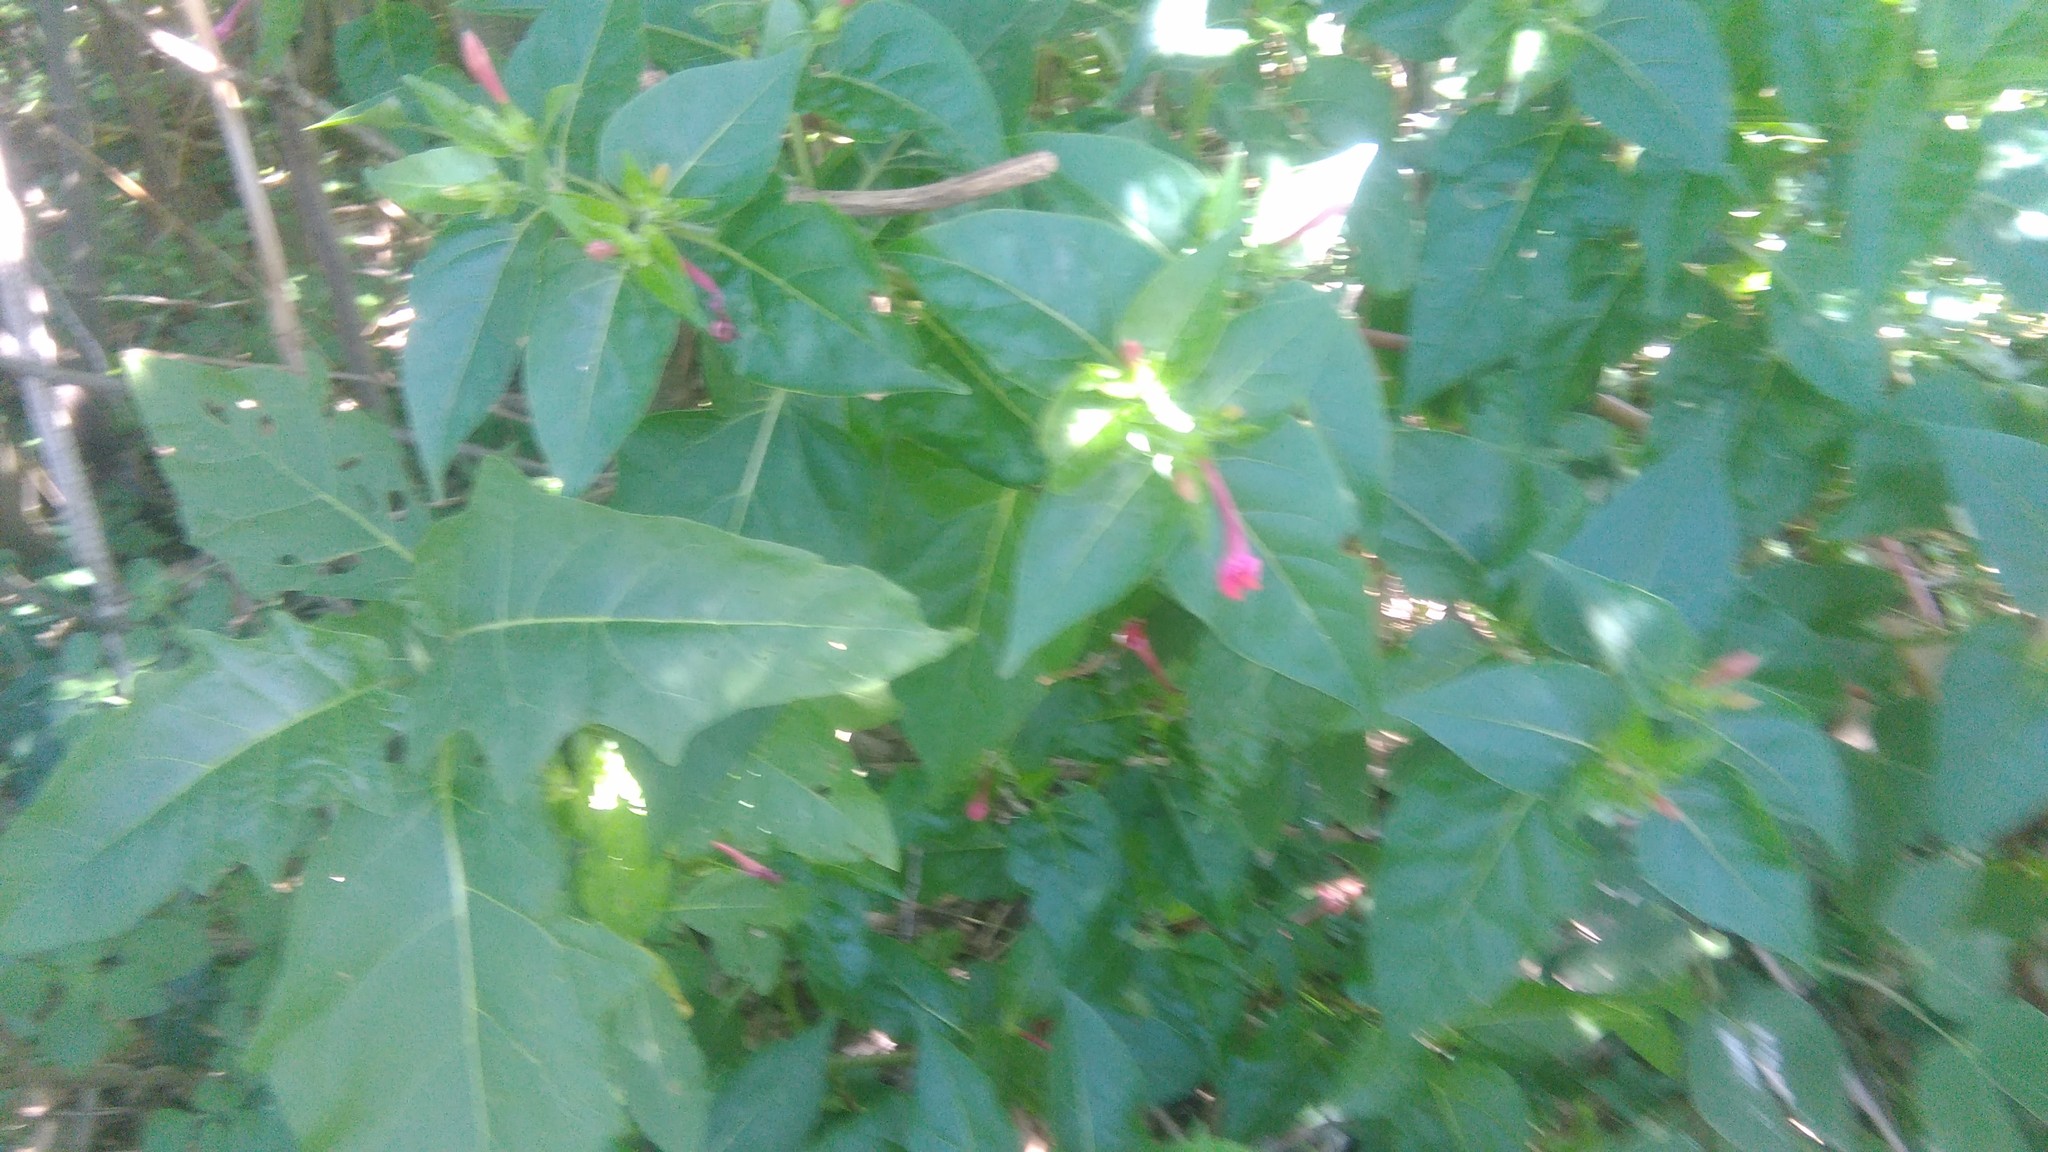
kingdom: Plantae
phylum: Tracheophyta
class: Magnoliopsida
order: Caryophyllales
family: Nyctaginaceae
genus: Mirabilis
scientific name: Mirabilis jalapa
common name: Marvel-of-peru
